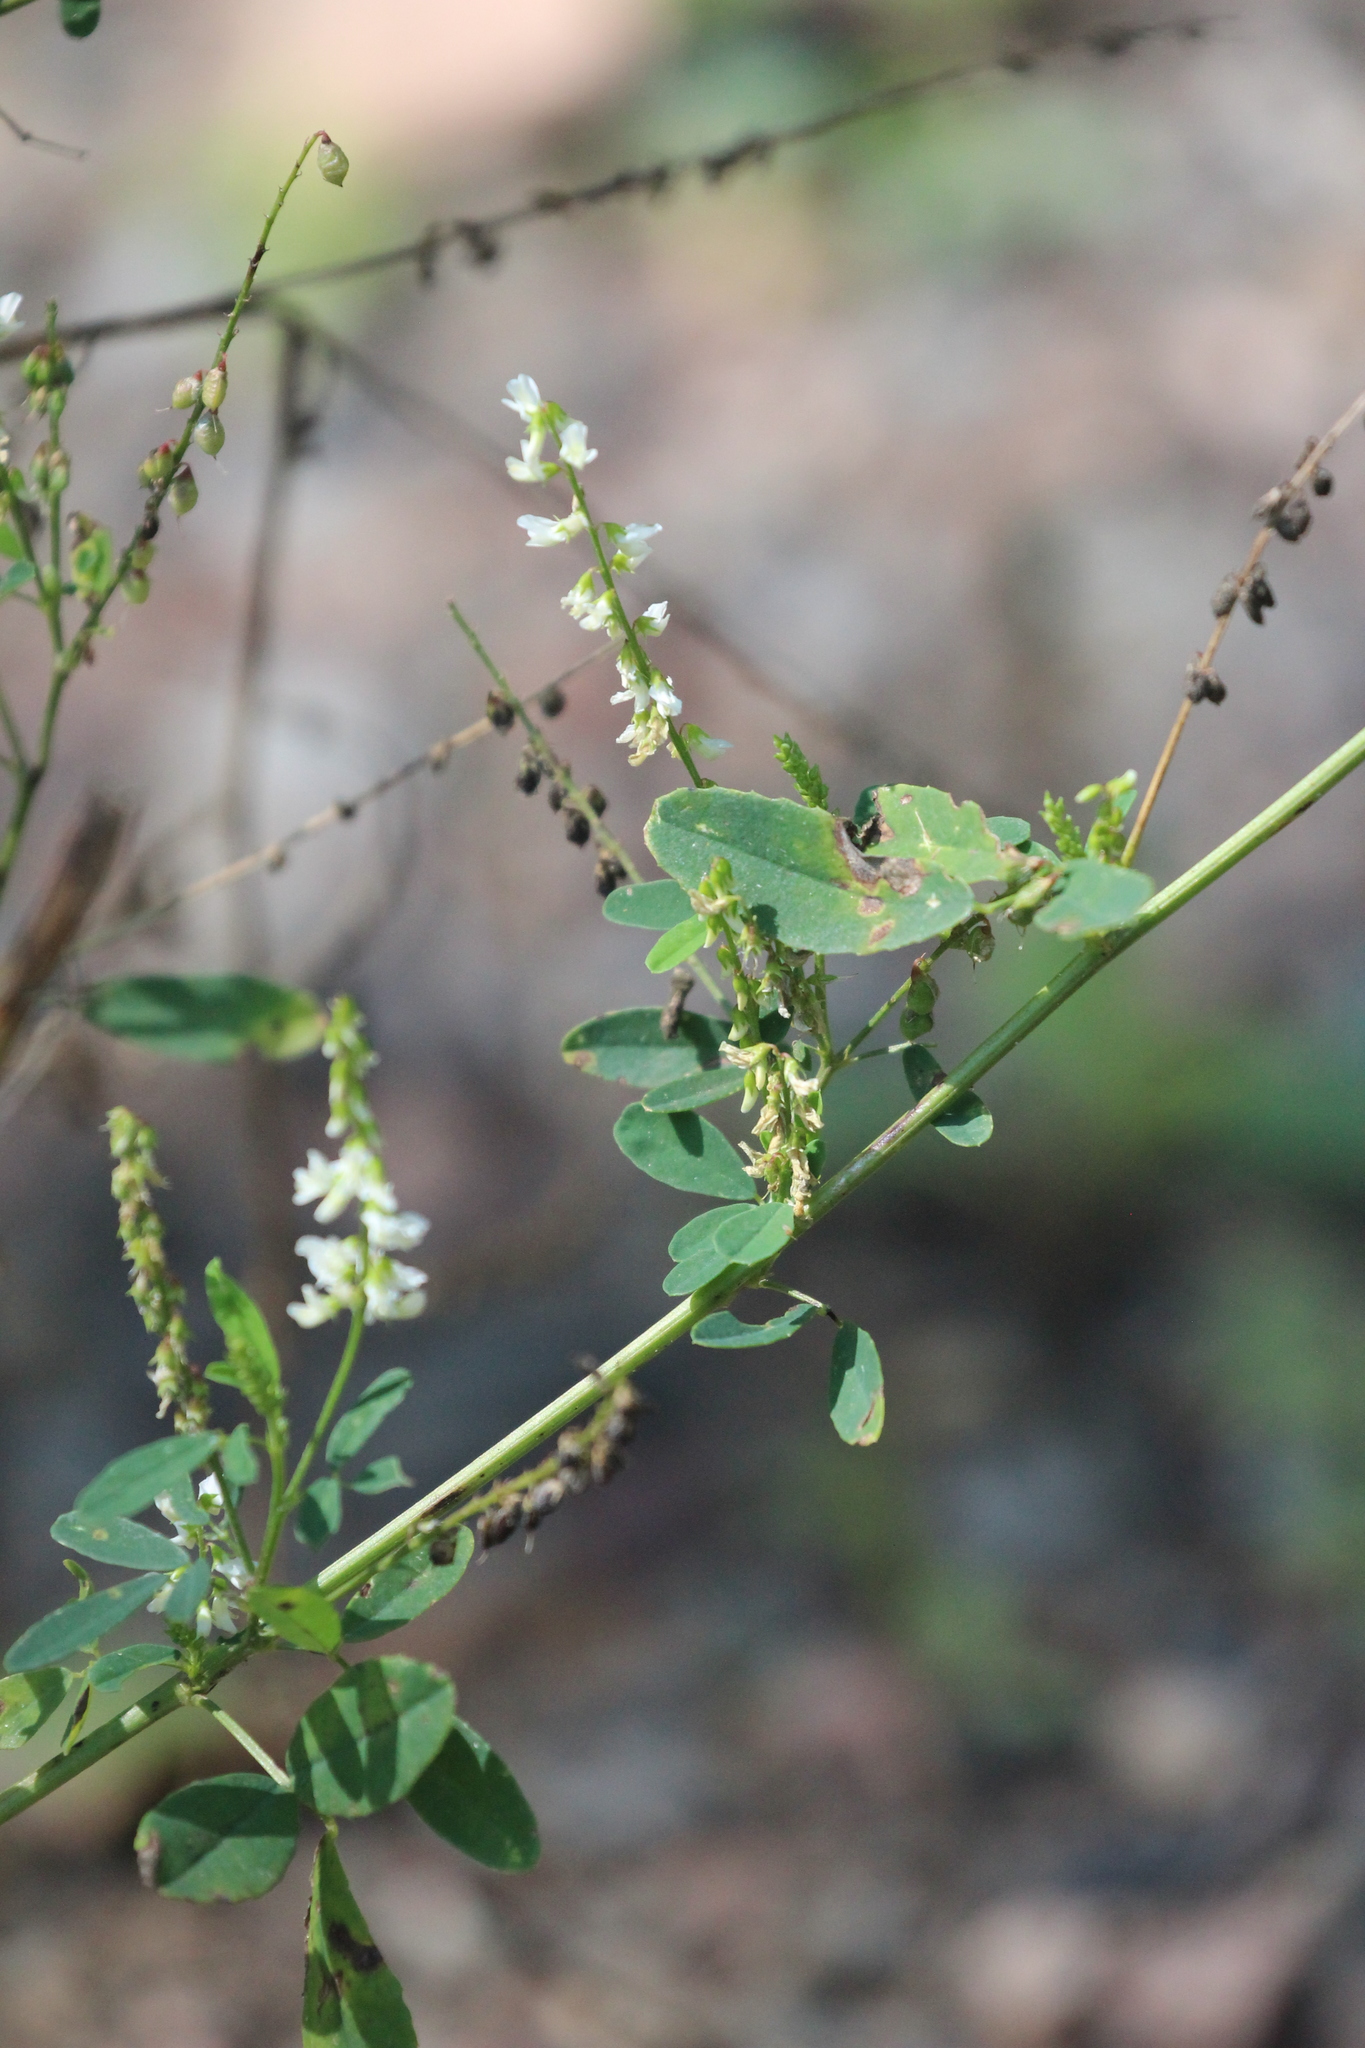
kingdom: Plantae
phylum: Tracheophyta
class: Magnoliopsida
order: Fabales
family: Fabaceae
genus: Melilotus
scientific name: Melilotus albus
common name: White melilot
